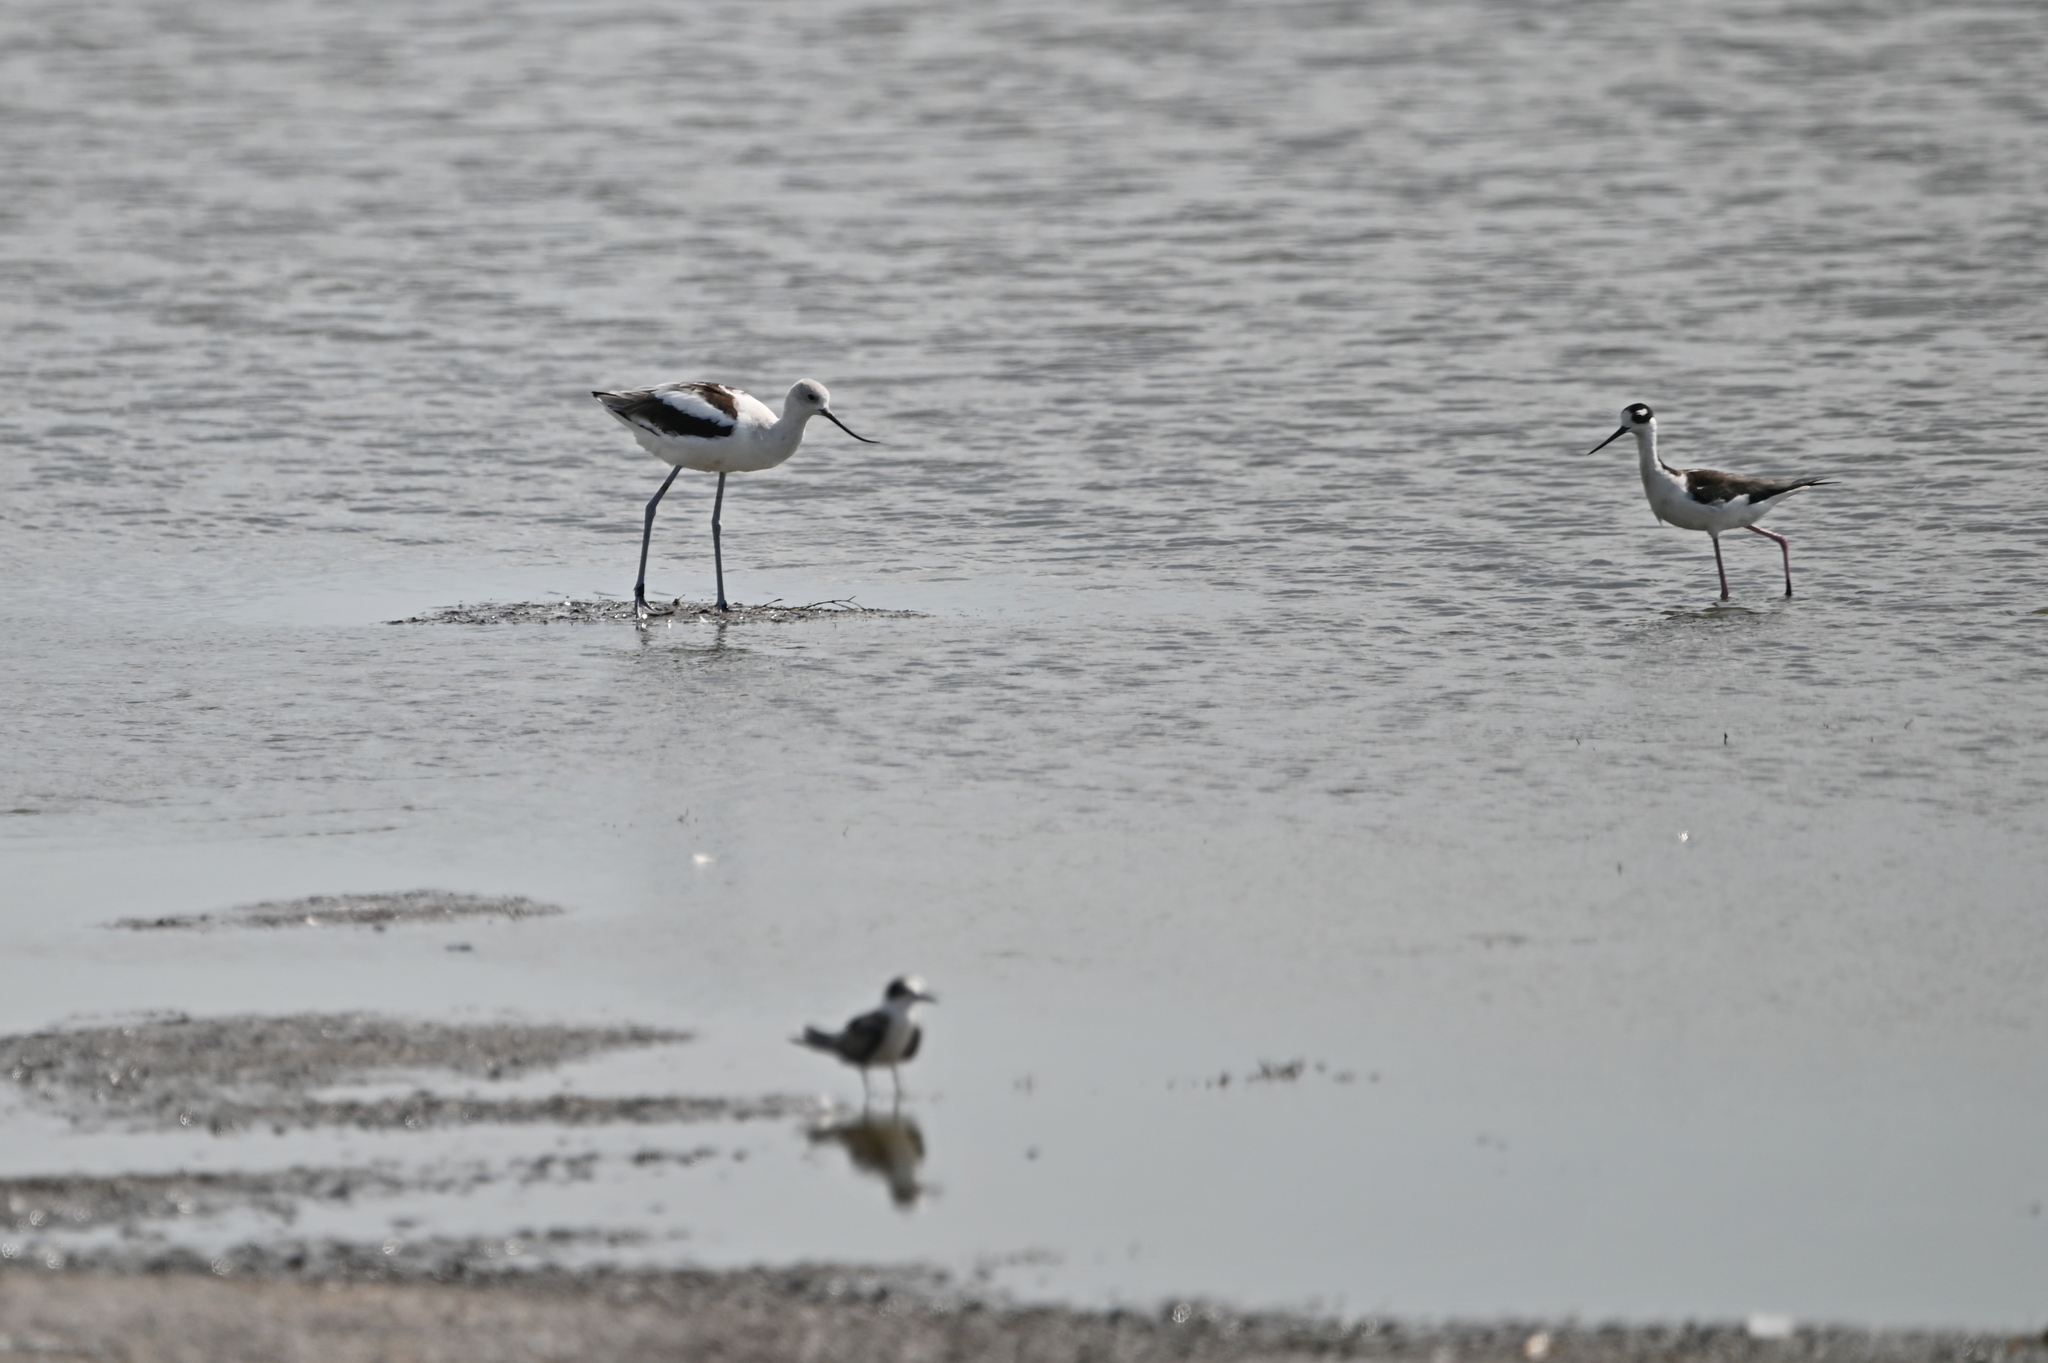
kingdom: Animalia
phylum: Chordata
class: Aves
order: Charadriiformes
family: Recurvirostridae
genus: Recurvirostra
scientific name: Recurvirostra americana
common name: American avocet
